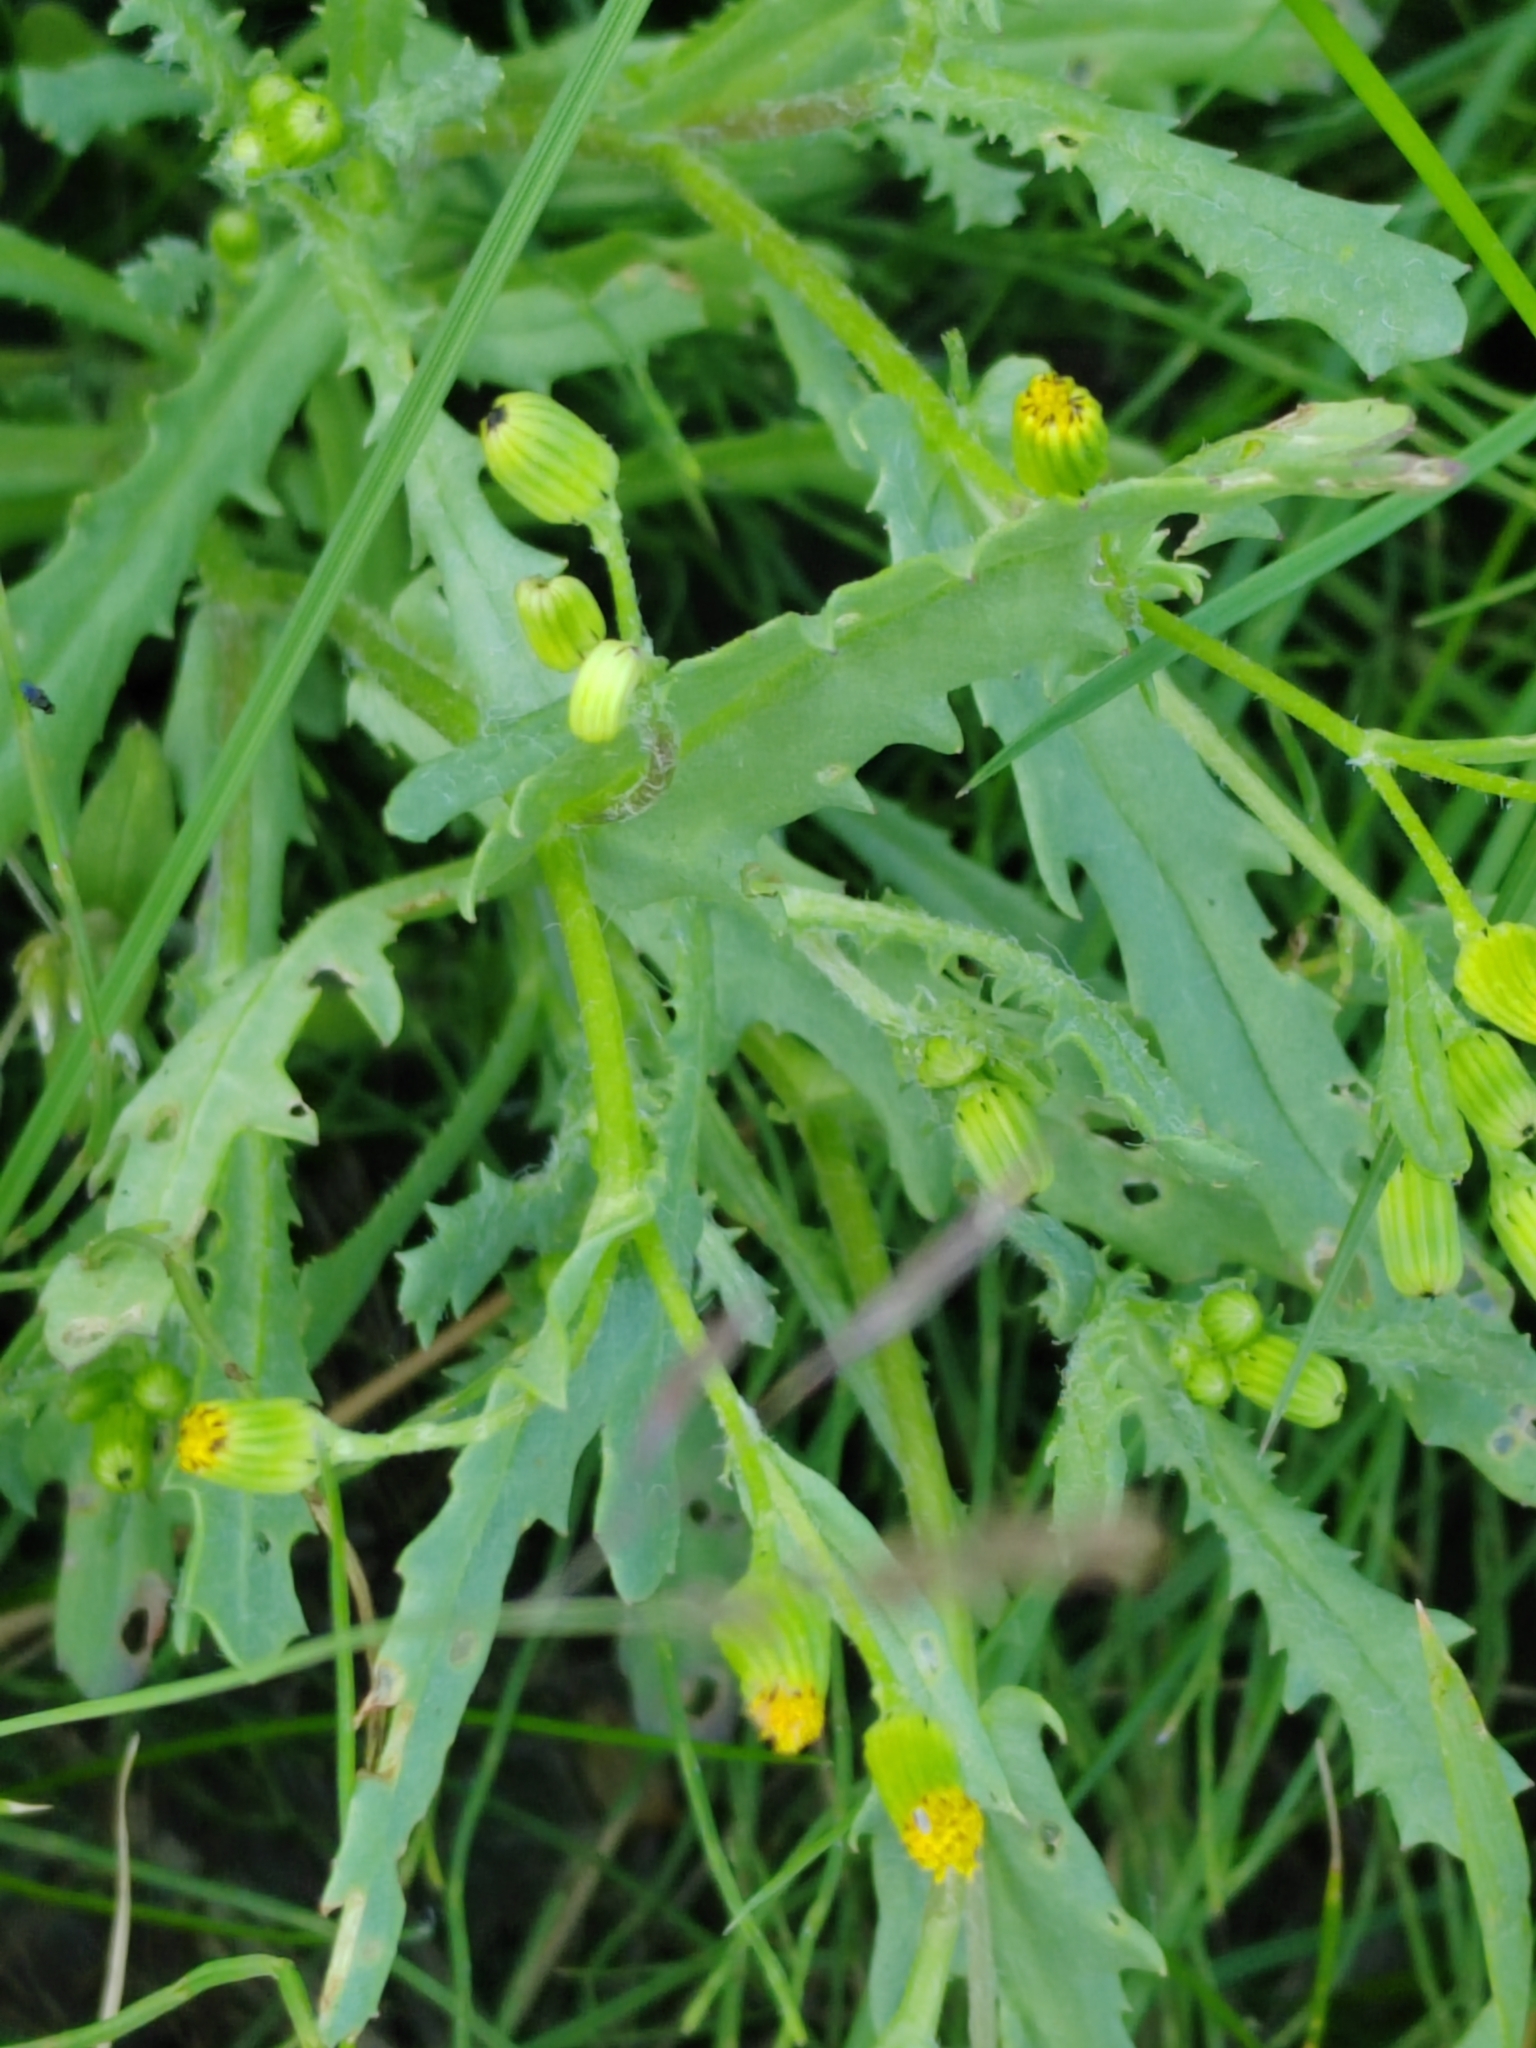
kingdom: Plantae
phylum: Tracheophyta
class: Magnoliopsida
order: Asterales
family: Asteraceae
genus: Senecio
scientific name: Senecio dubitabilis
